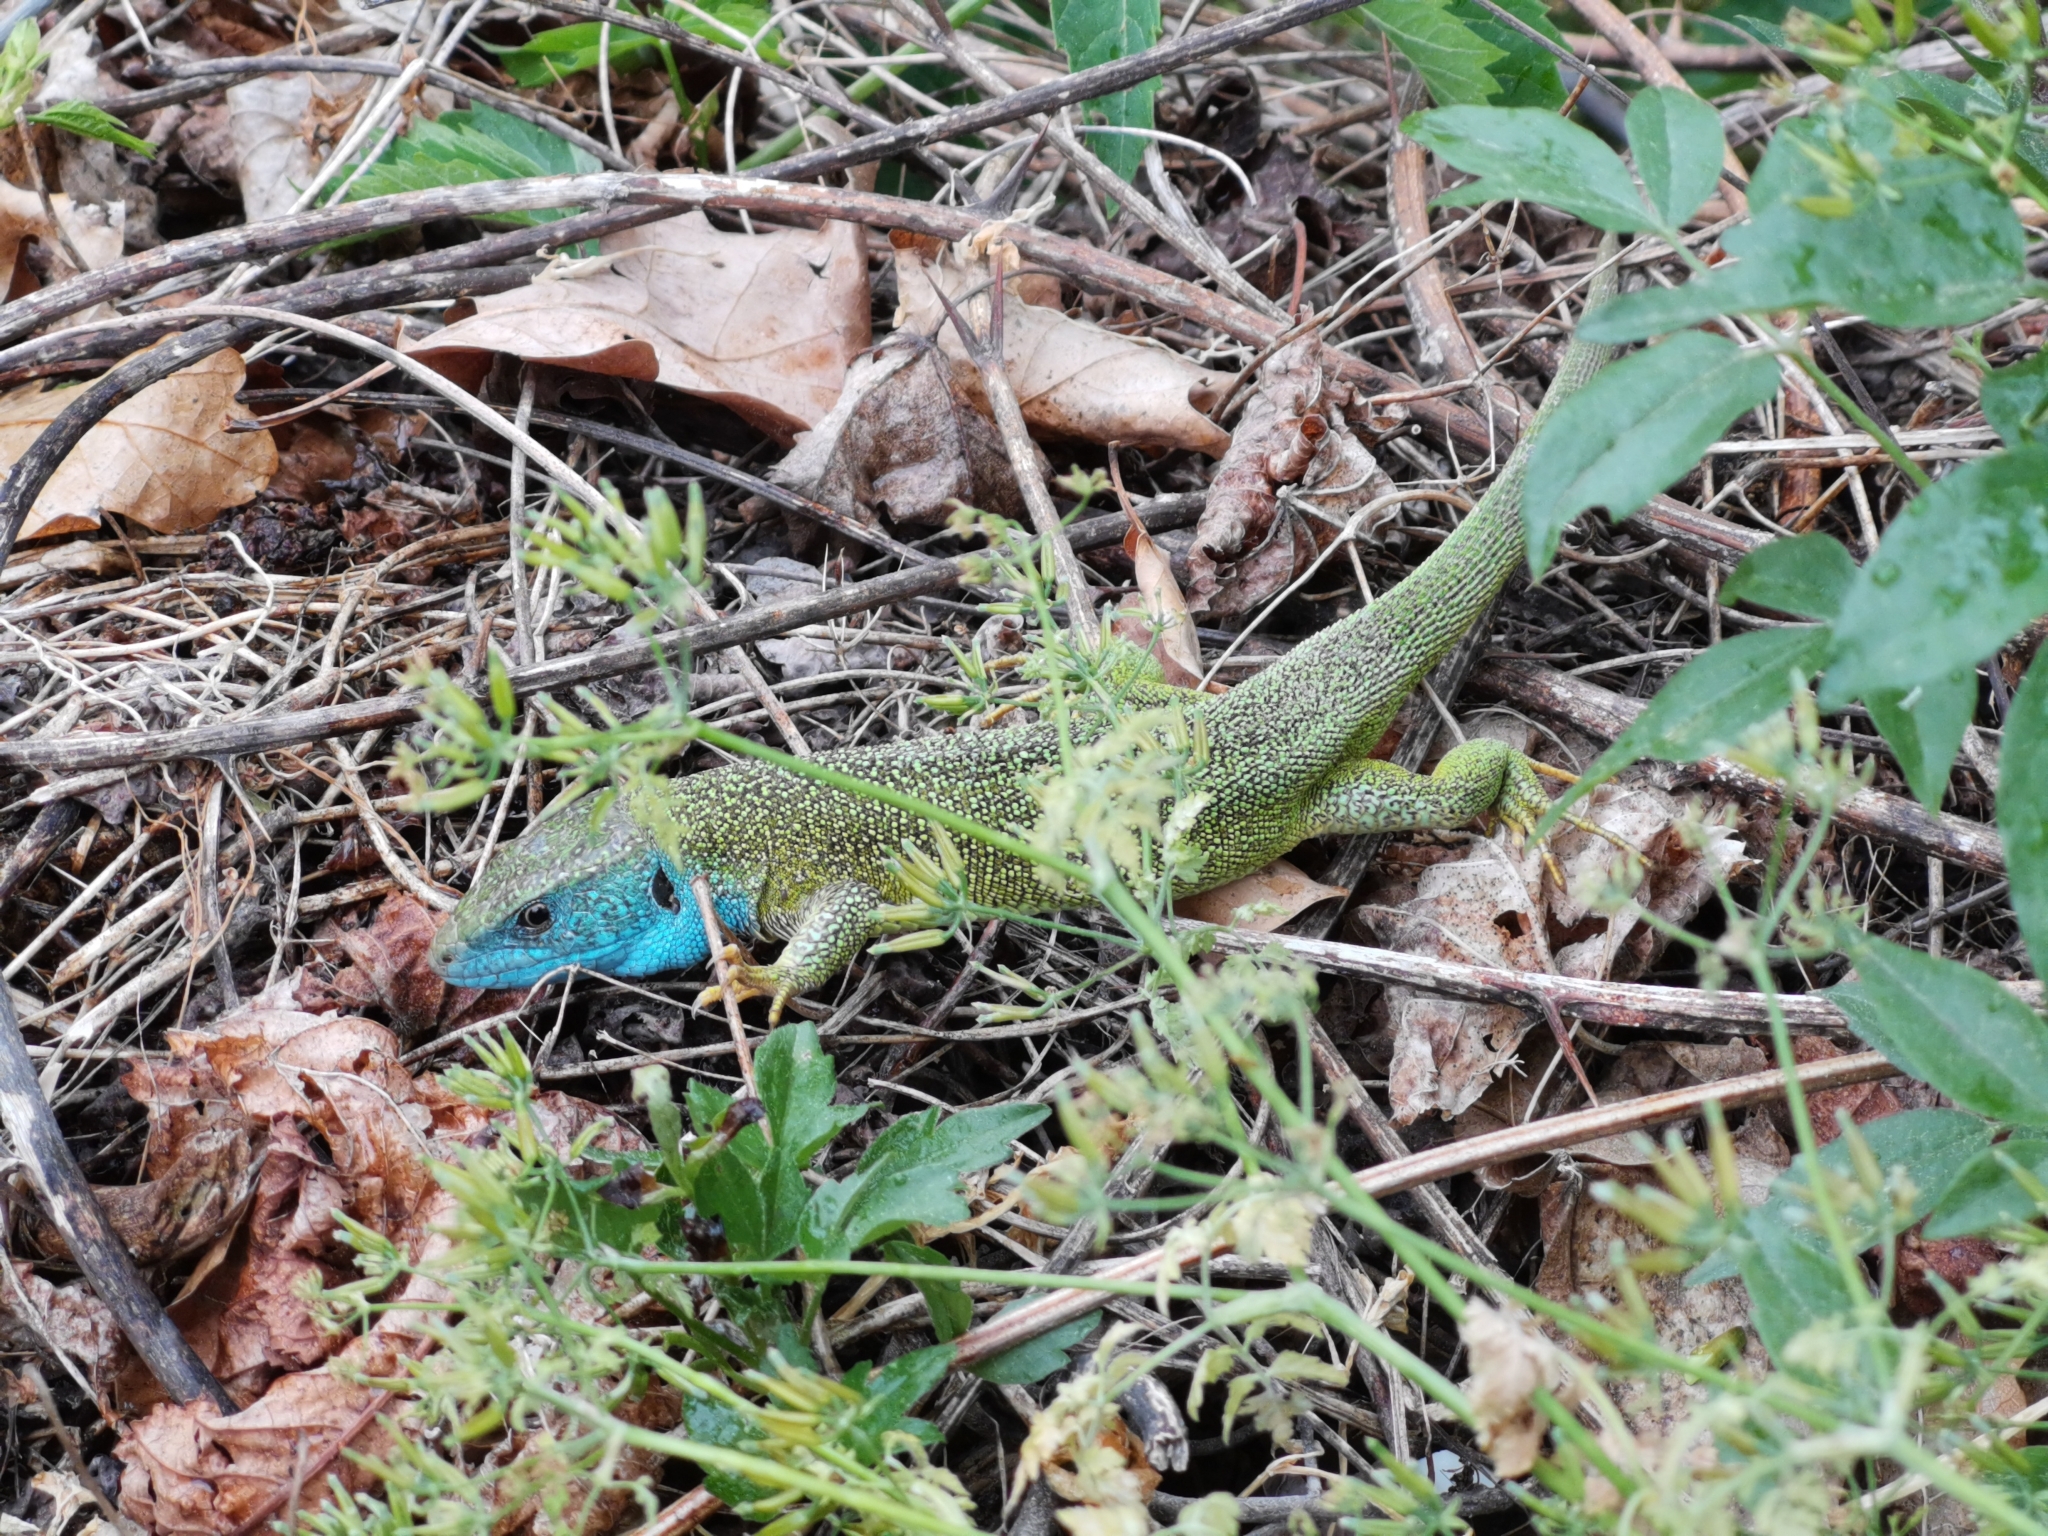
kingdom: Animalia
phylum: Chordata
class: Squamata
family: Lacertidae
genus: Lacerta
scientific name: Lacerta viridis
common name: European green lizard
